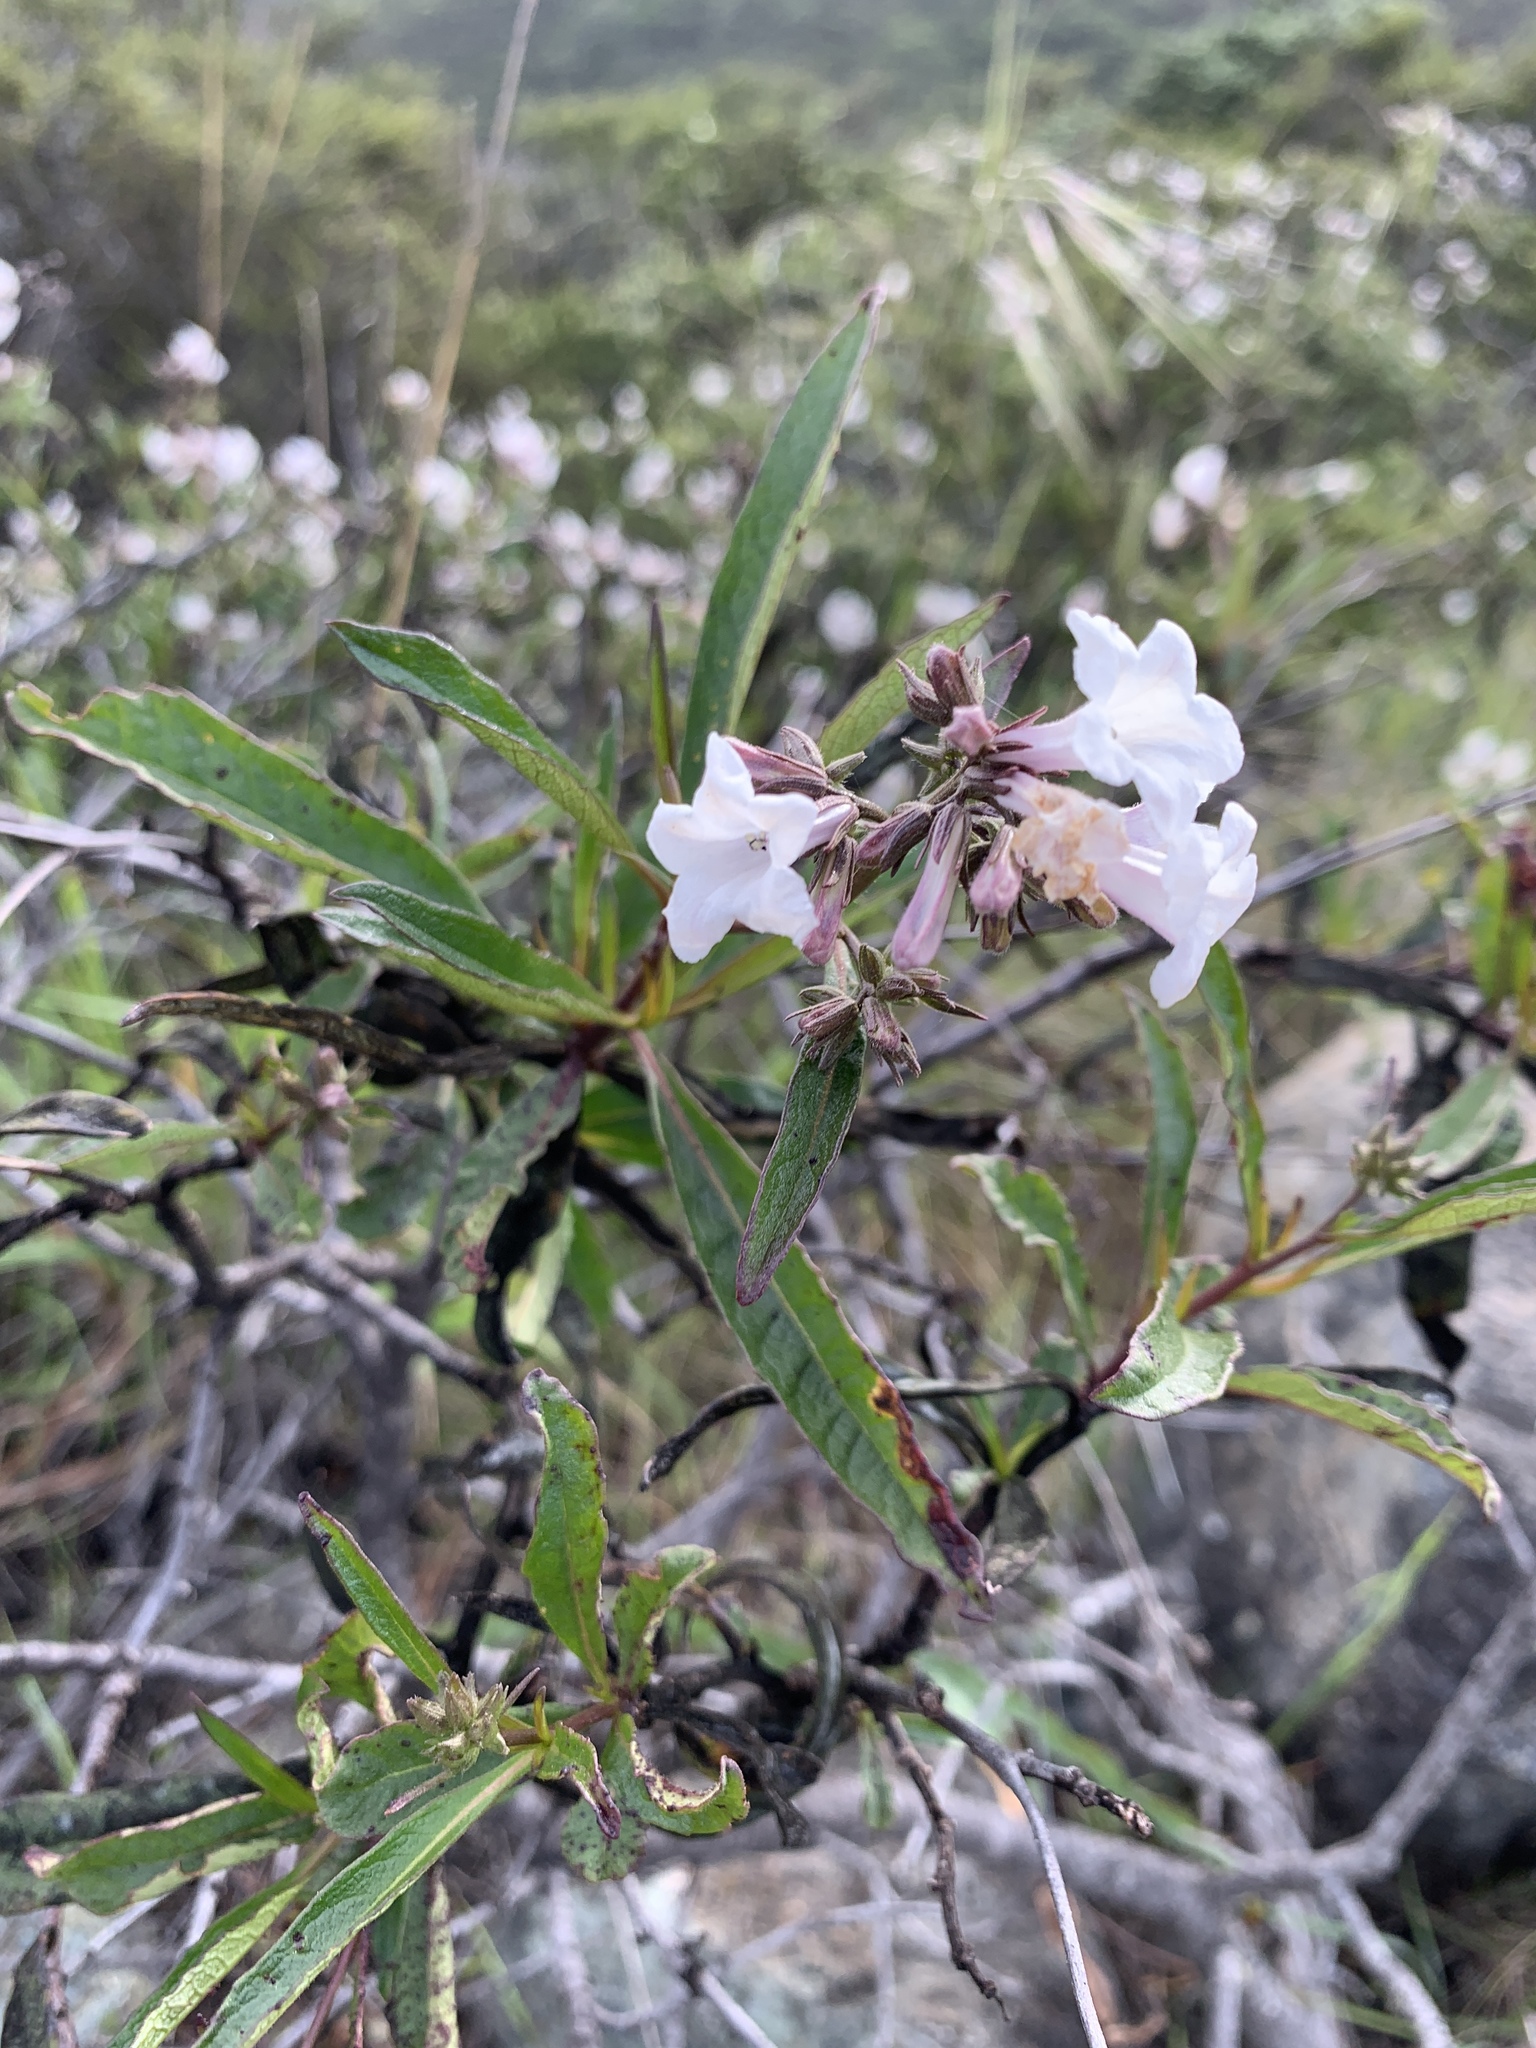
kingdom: Plantae
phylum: Tracheophyta
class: Magnoliopsida
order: Boraginales
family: Namaceae
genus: Eriodictyon
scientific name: Eriodictyon californicum
